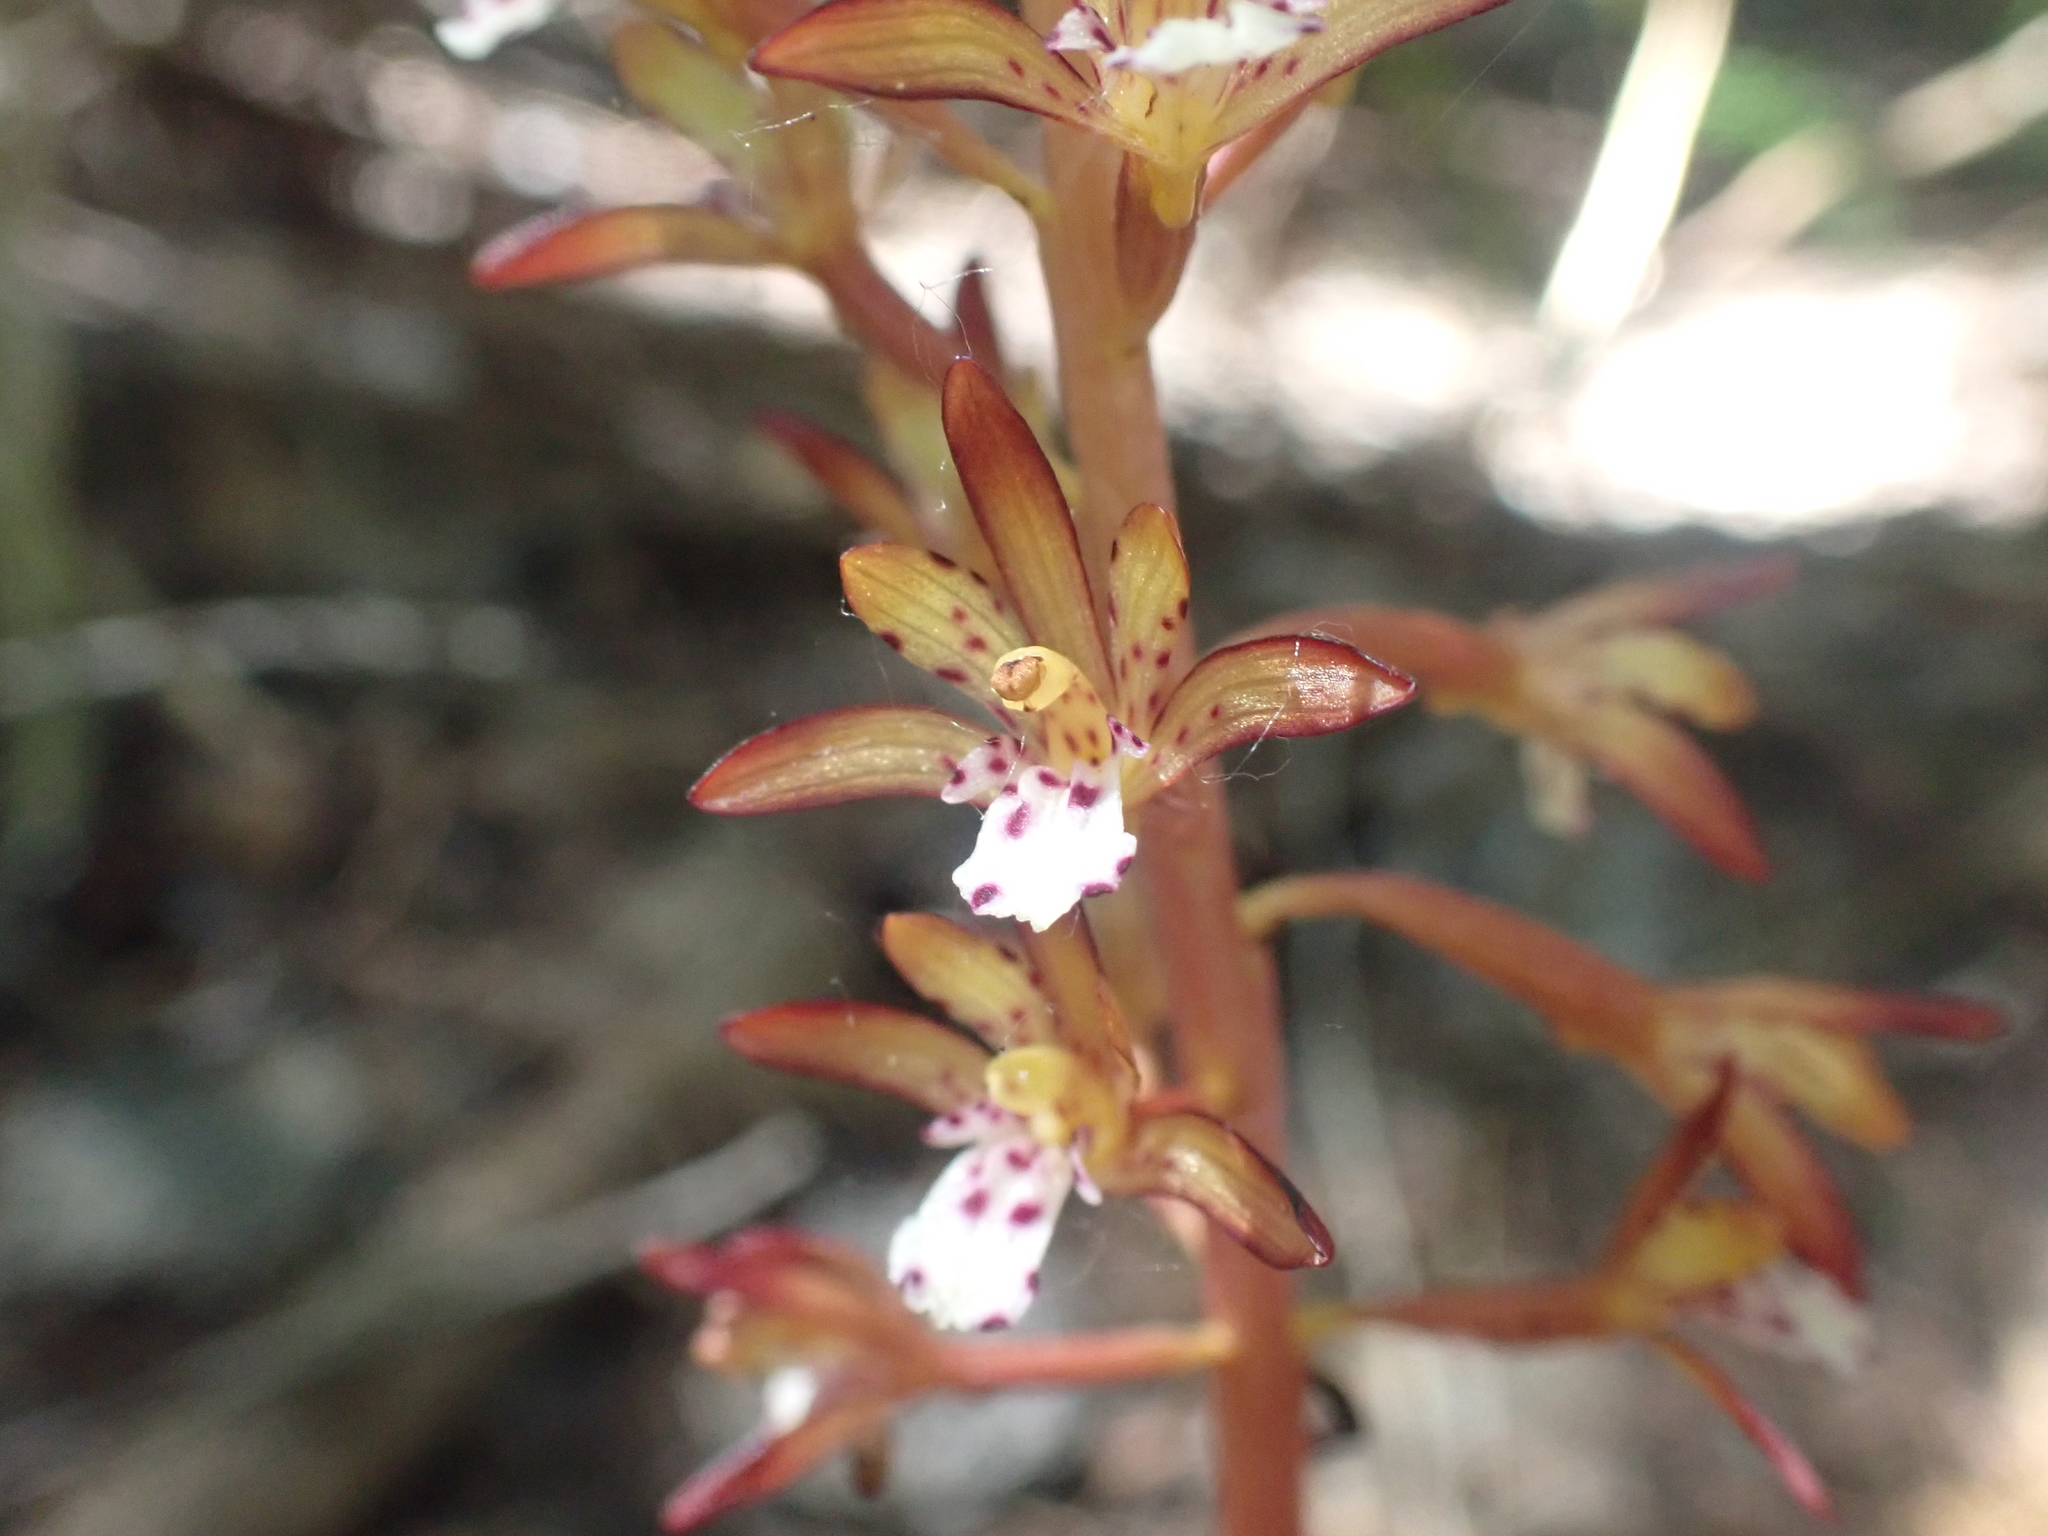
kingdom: Plantae
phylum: Tracheophyta
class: Liliopsida
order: Asparagales
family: Orchidaceae
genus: Corallorhiza
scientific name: Corallorhiza maculata
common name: Spotted coralroot
